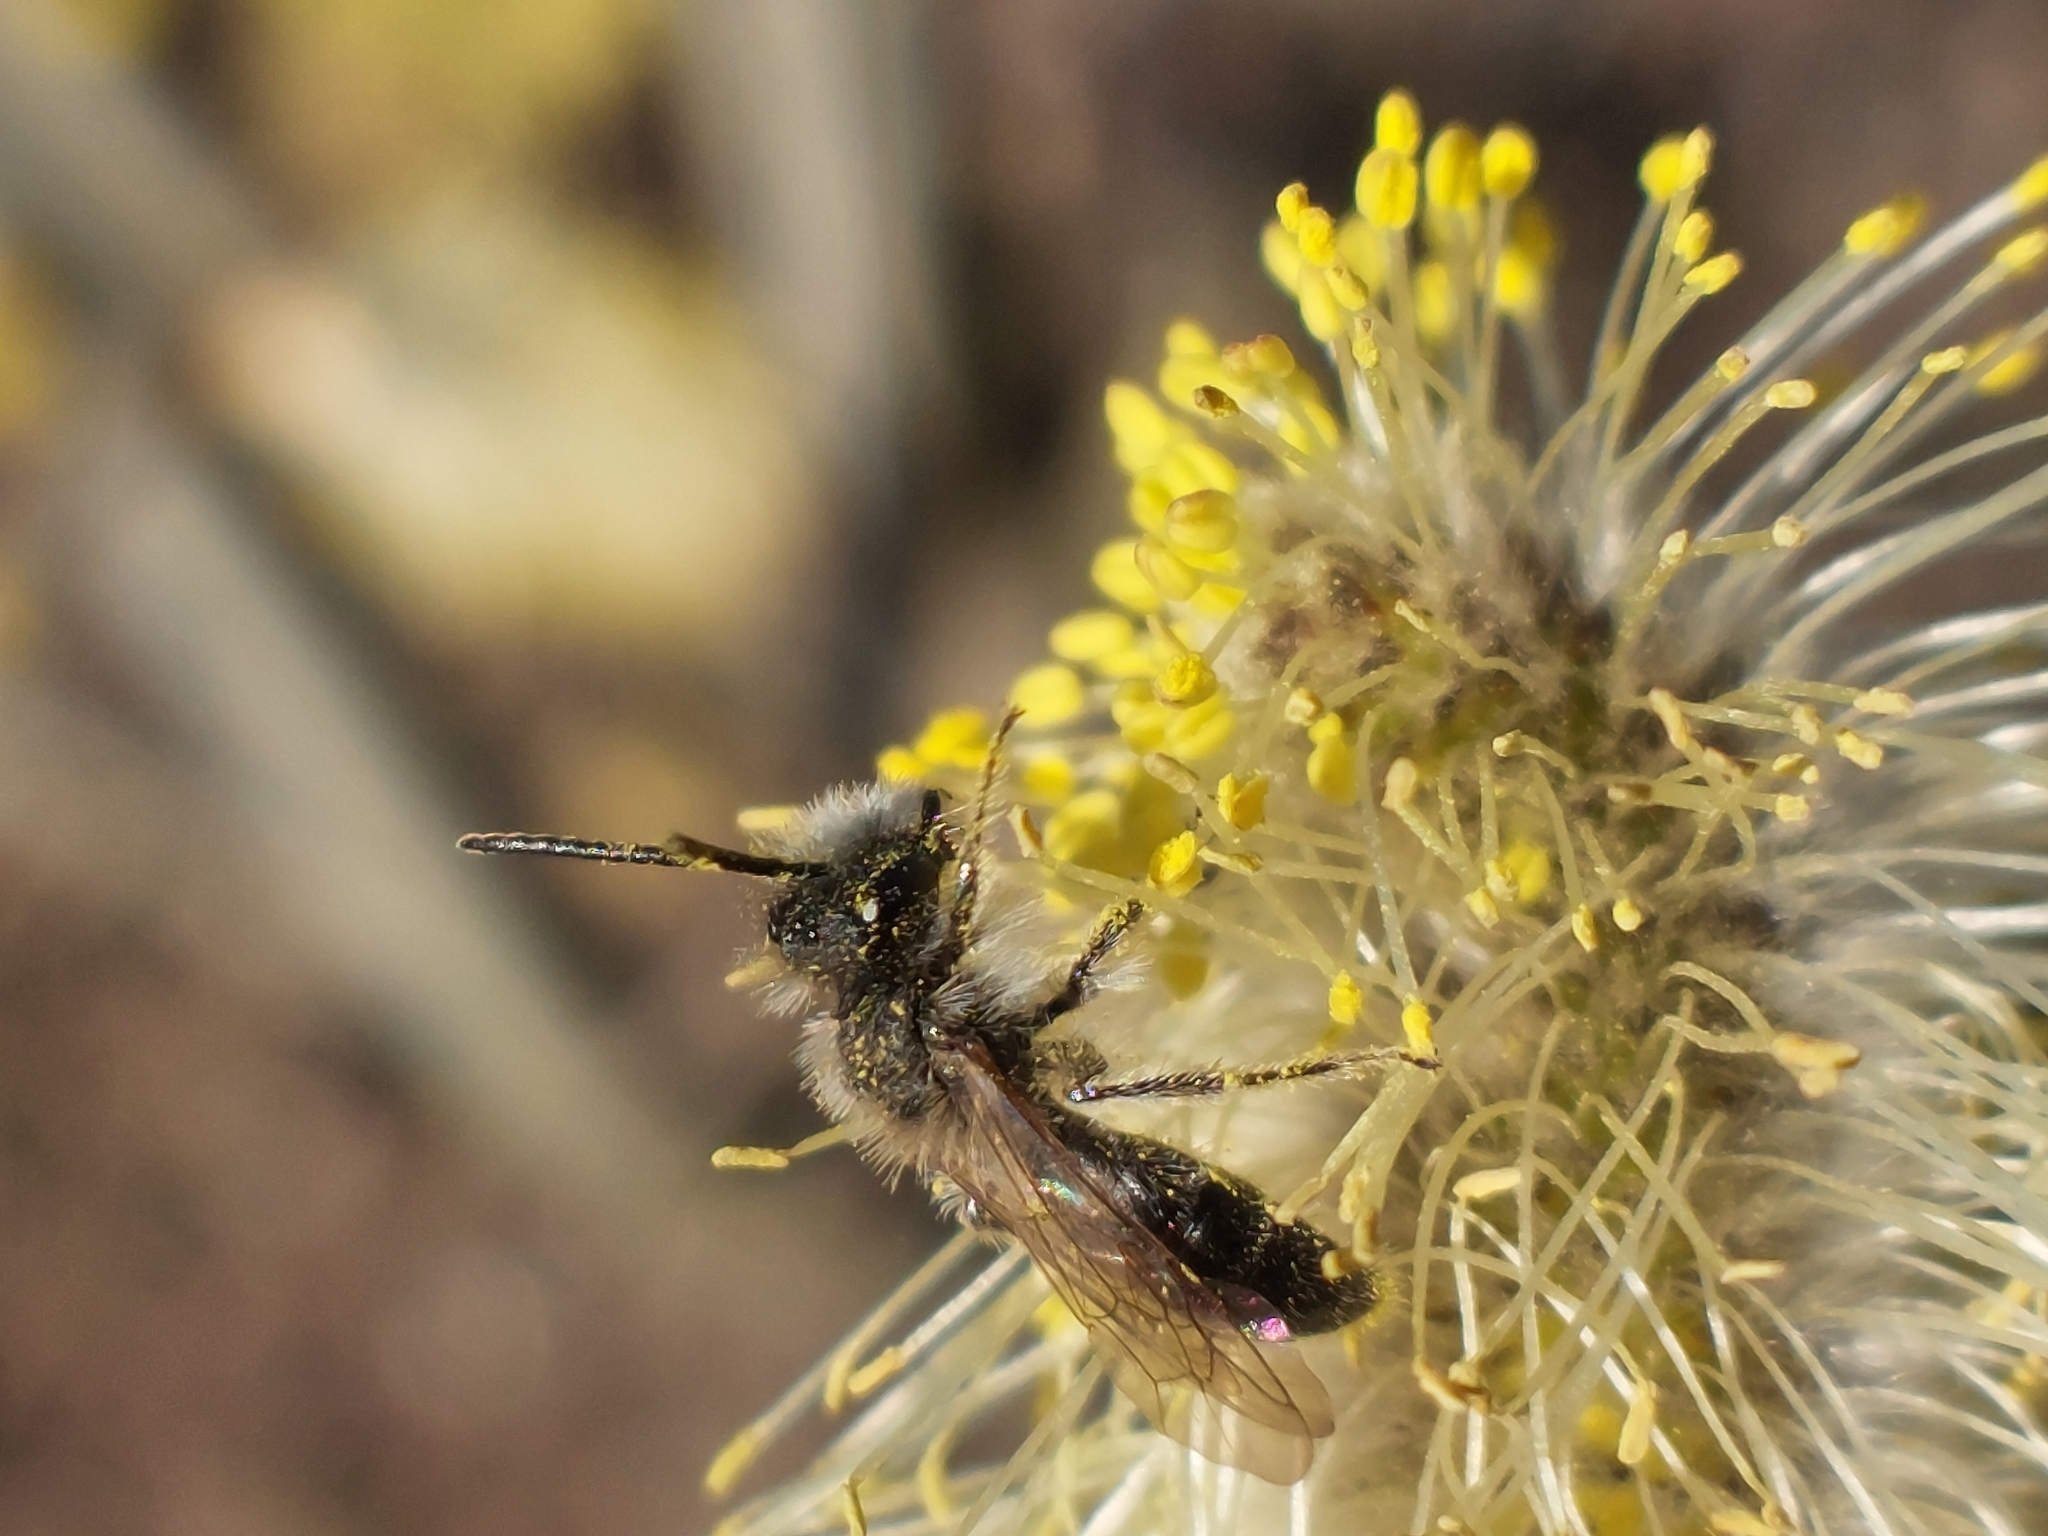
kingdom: Animalia
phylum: Arthropoda
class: Insecta
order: Hymenoptera
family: Andrenidae
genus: Andrena
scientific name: Andrena praecox
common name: Small sallow mining bee
